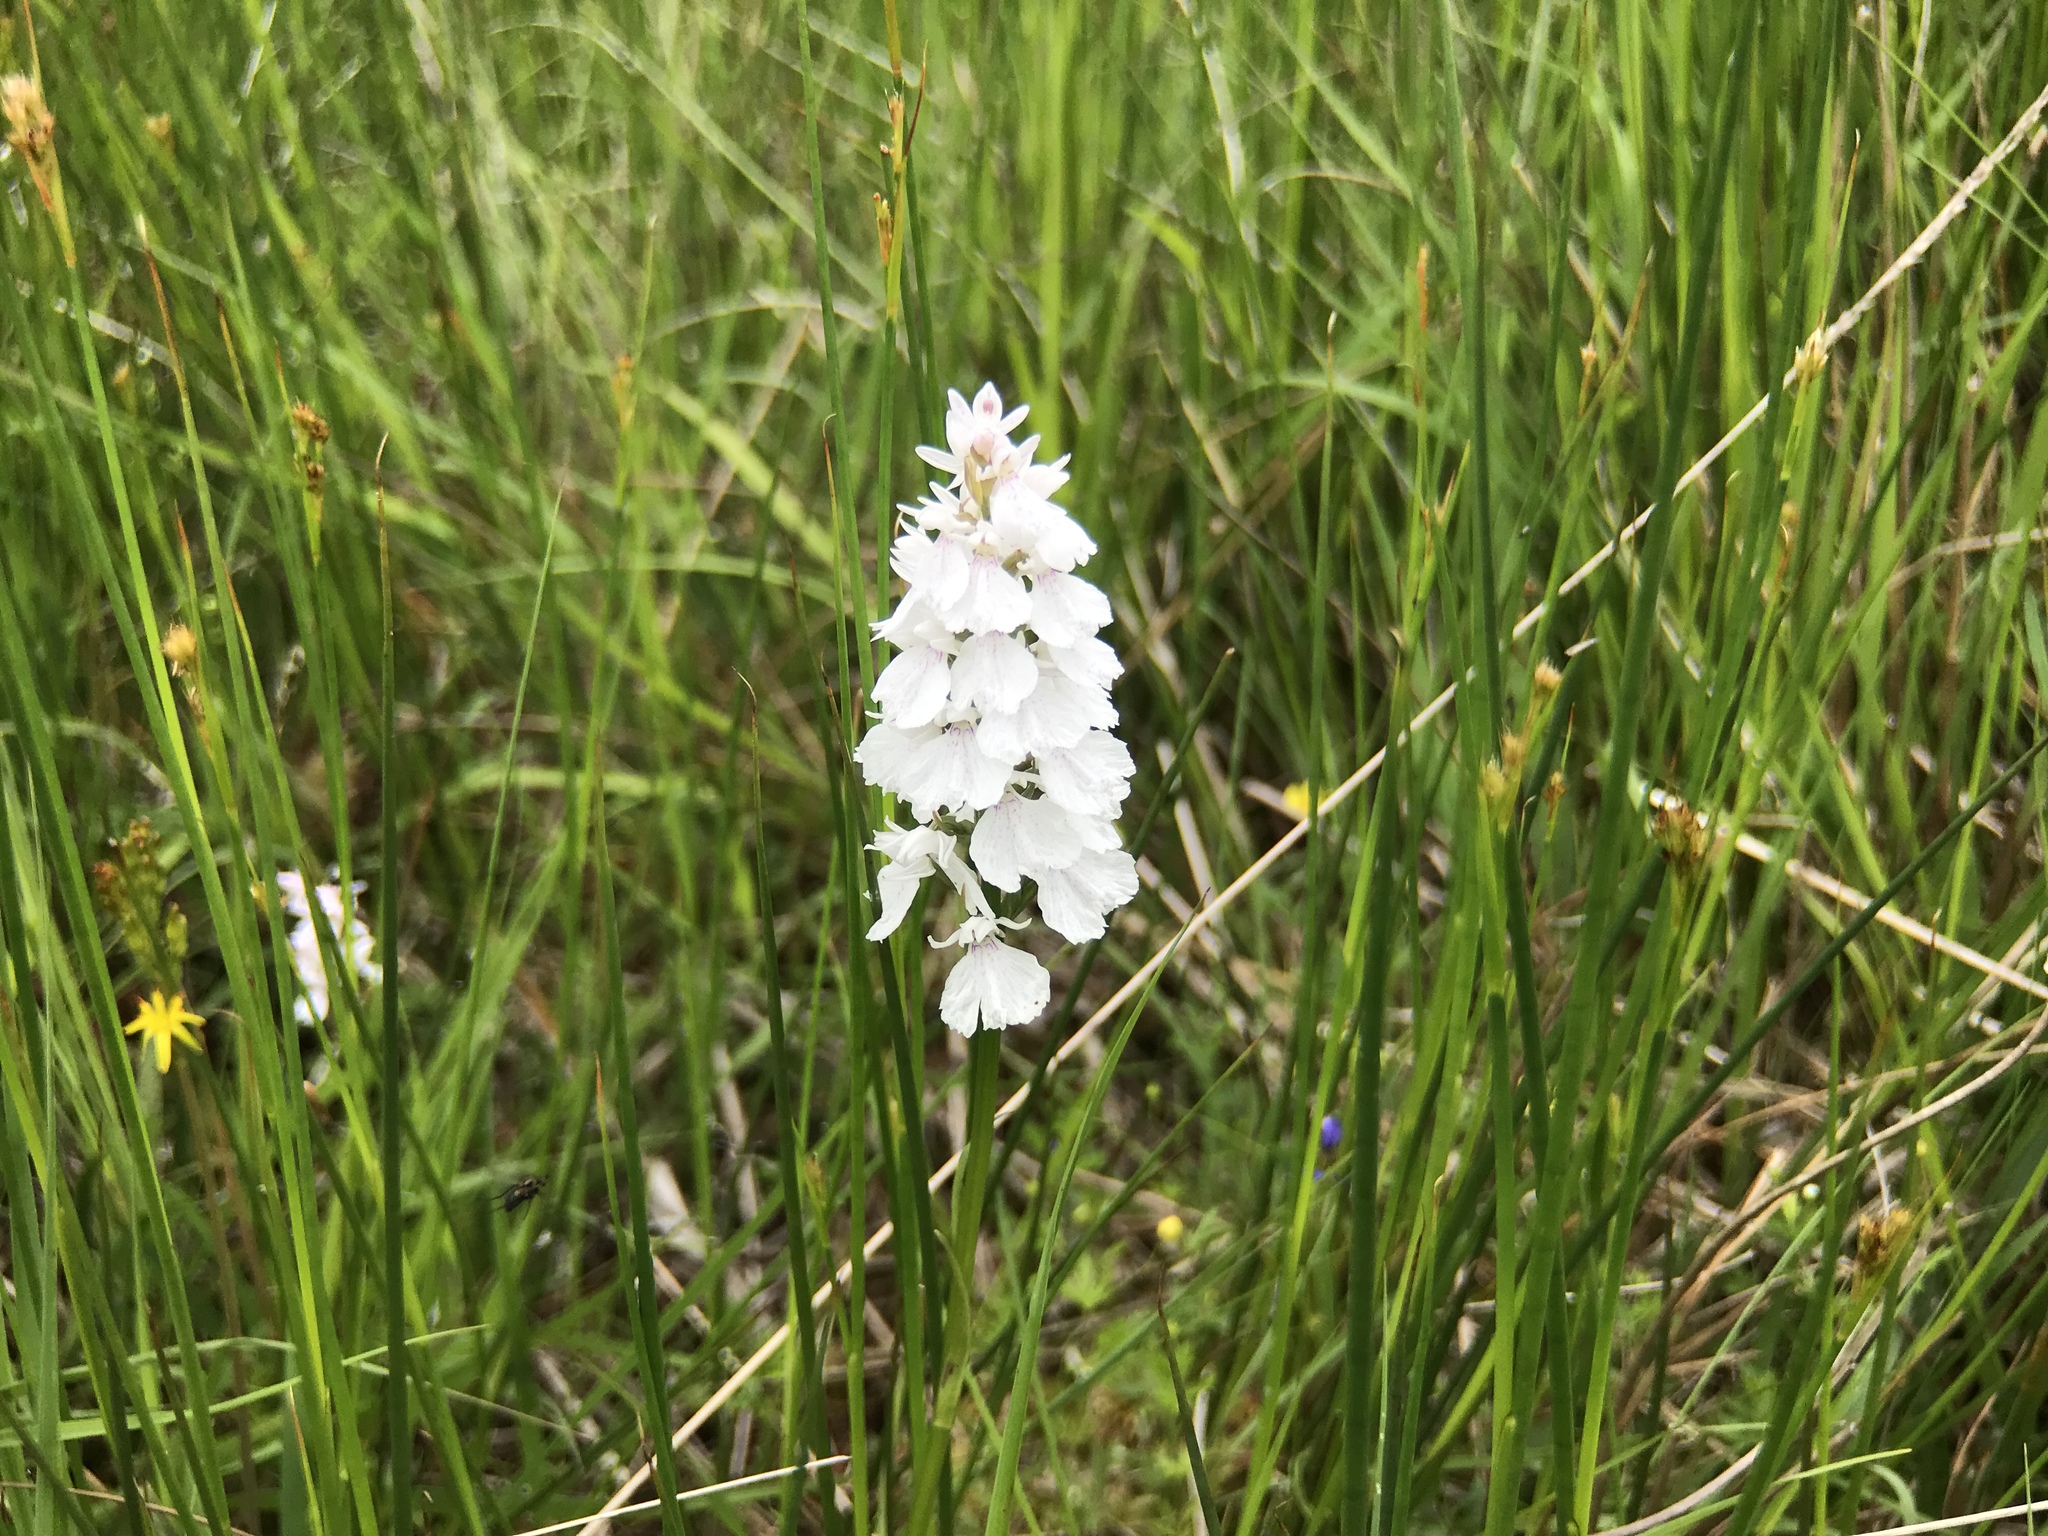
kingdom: Plantae
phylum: Tracheophyta
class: Liliopsida
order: Asparagales
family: Orchidaceae
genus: Dactylorhiza
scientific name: Dactylorhiza maculata
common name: Heath spotted-orchid
